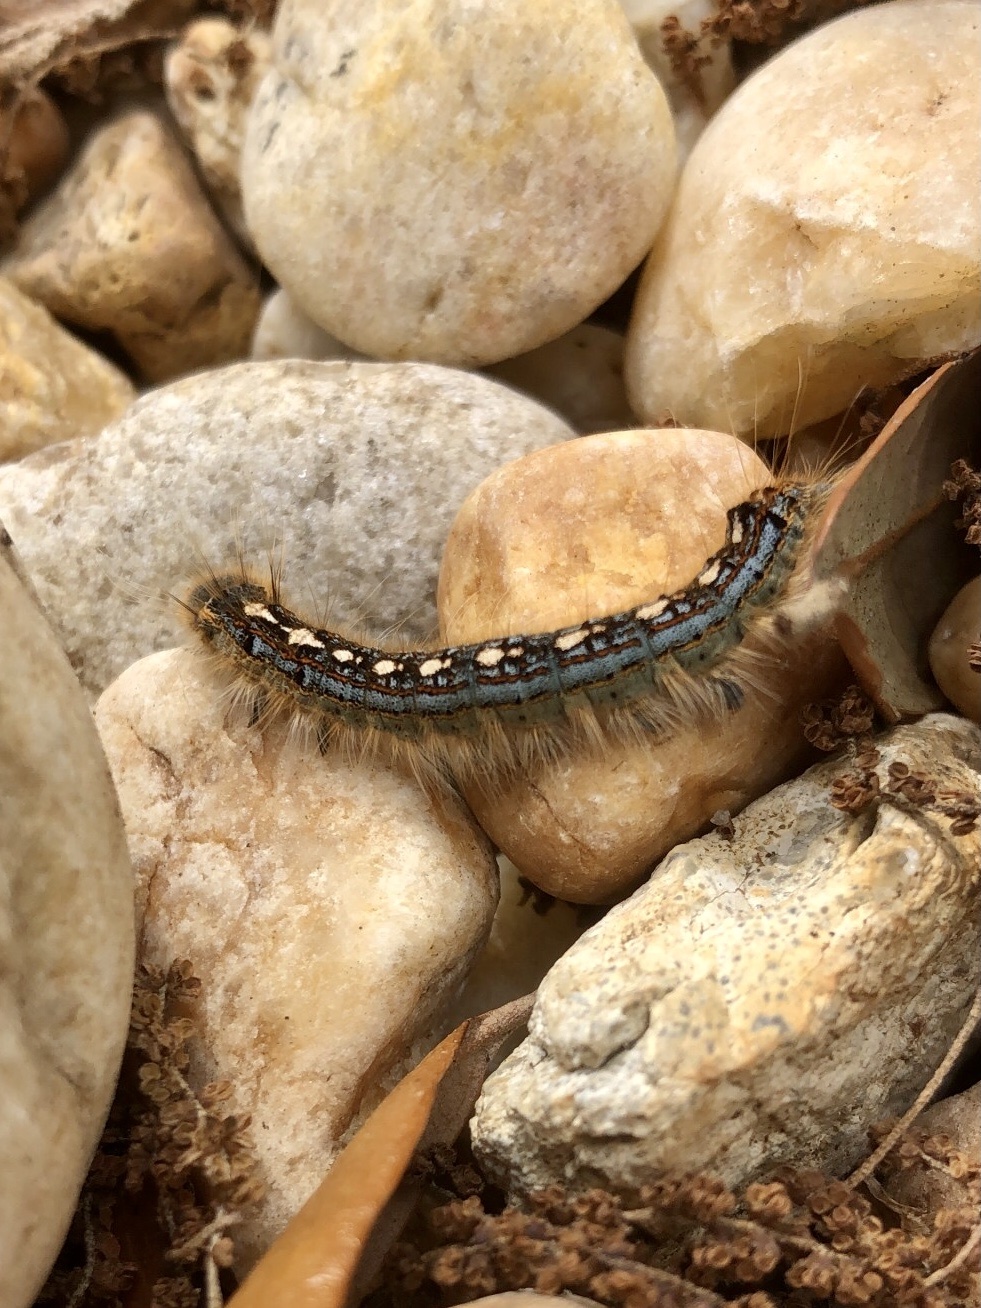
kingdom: Animalia
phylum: Arthropoda
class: Insecta
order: Lepidoptera
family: Lasiocampidae
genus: Malacosoma
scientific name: Malacosoma disstria
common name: Forest tent caterpillar
